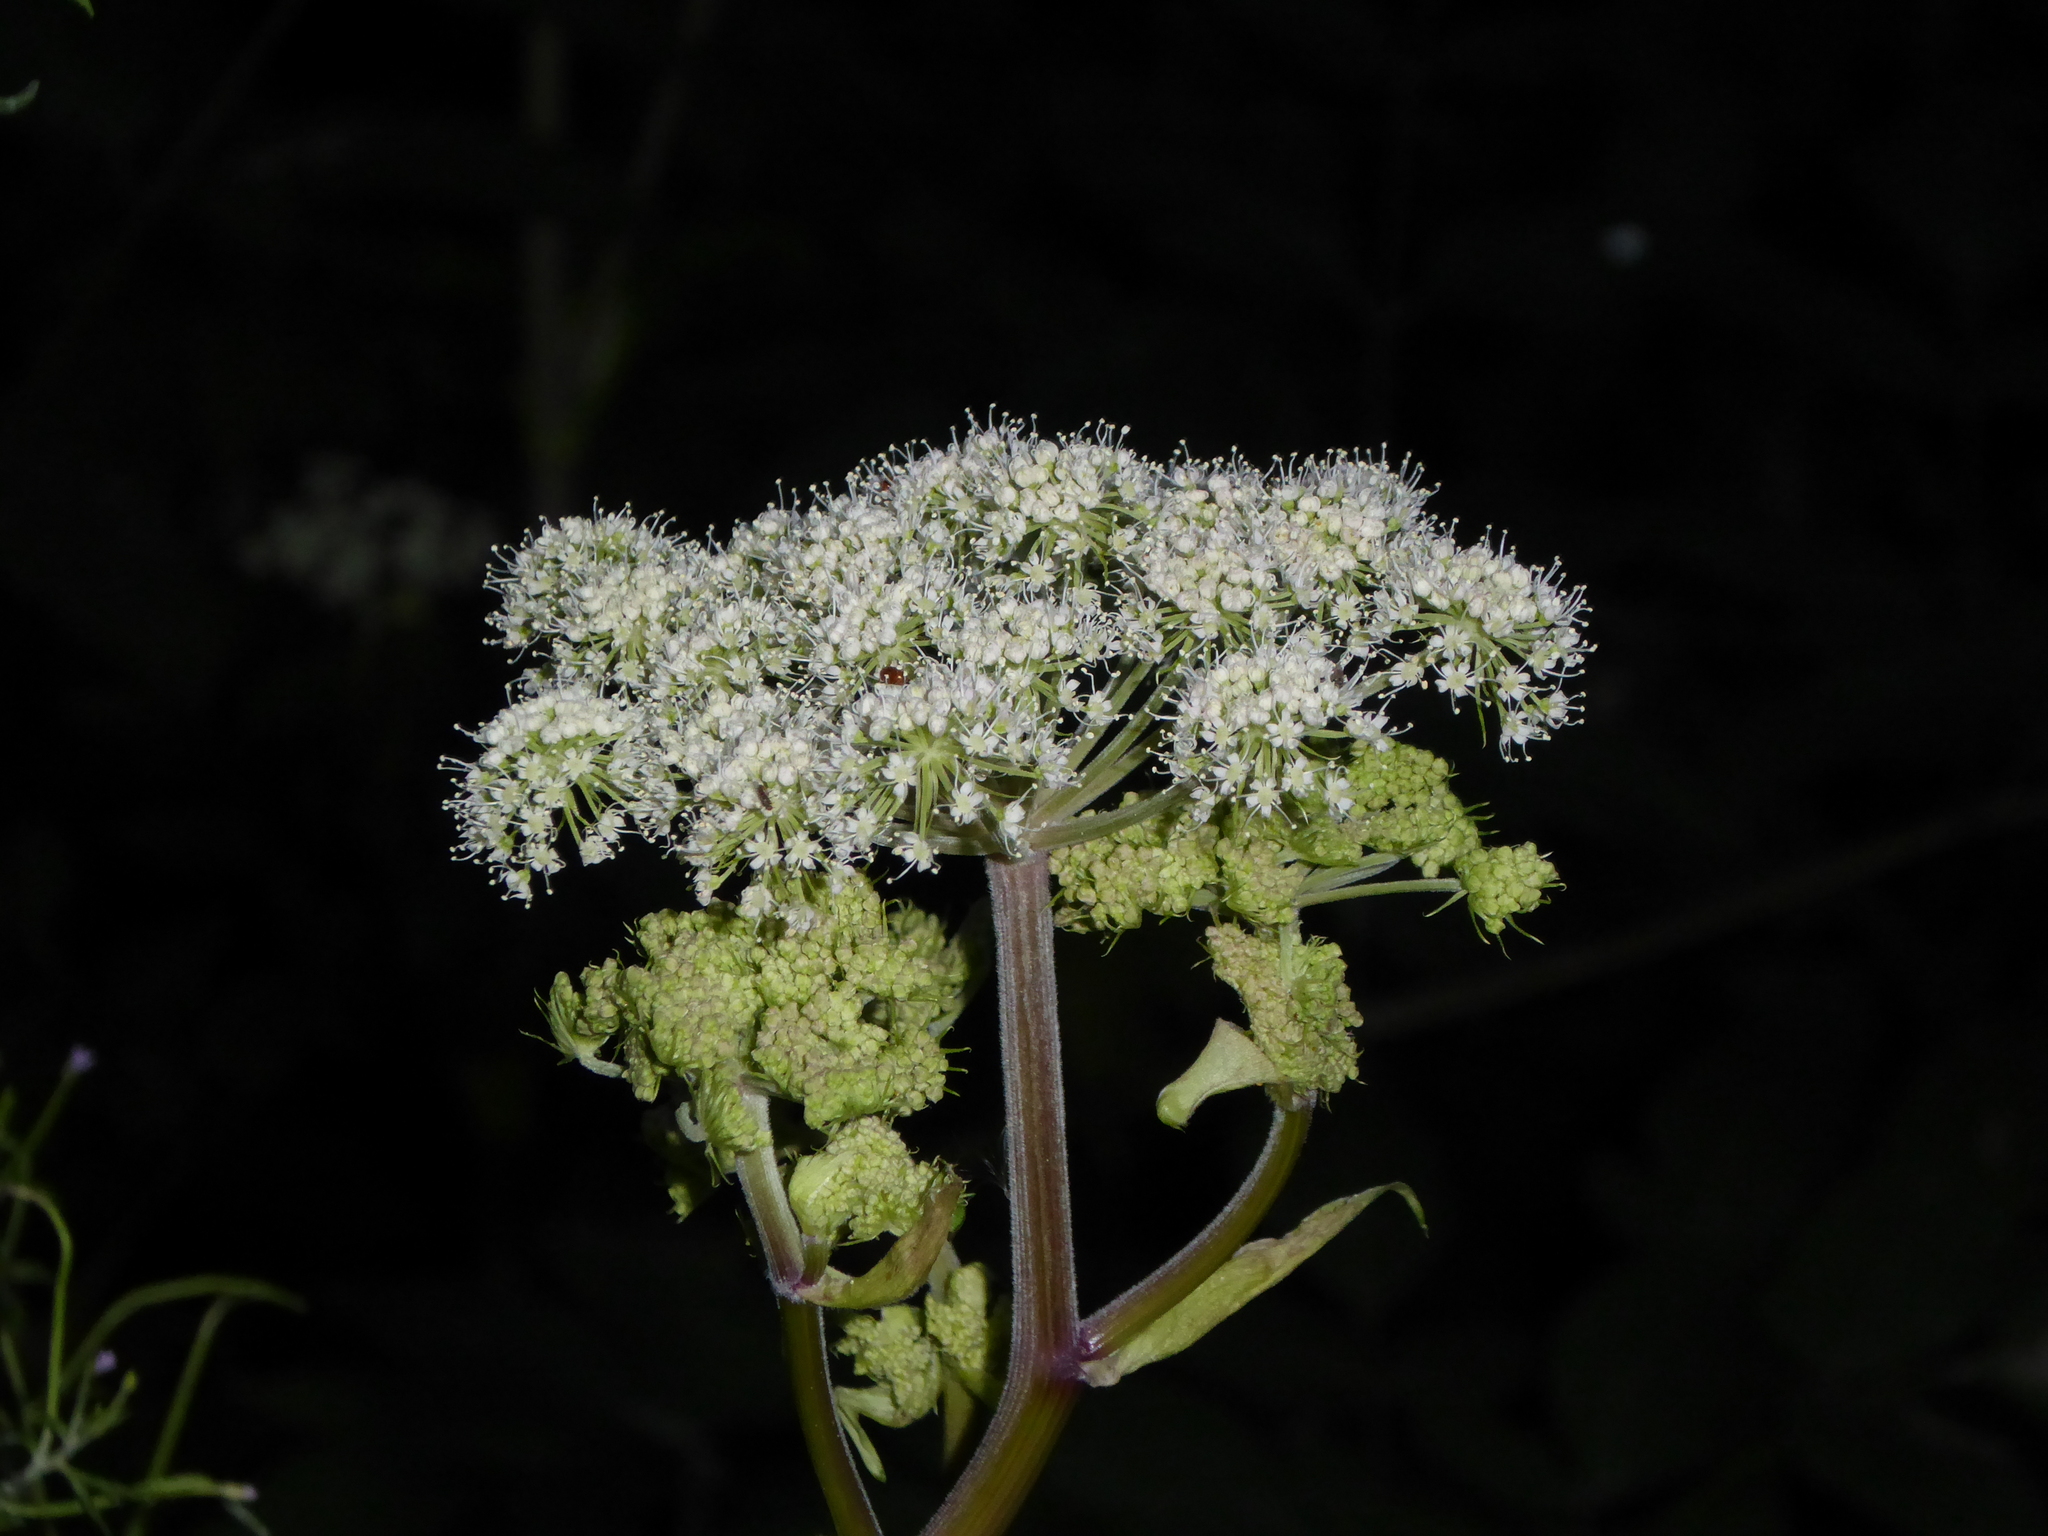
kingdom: Plantae
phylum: Tracheophyta
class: Magnoliopsida
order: Apiales
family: Apiaceae
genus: Angelica
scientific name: Angelica sylvestris
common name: Wild angelica
